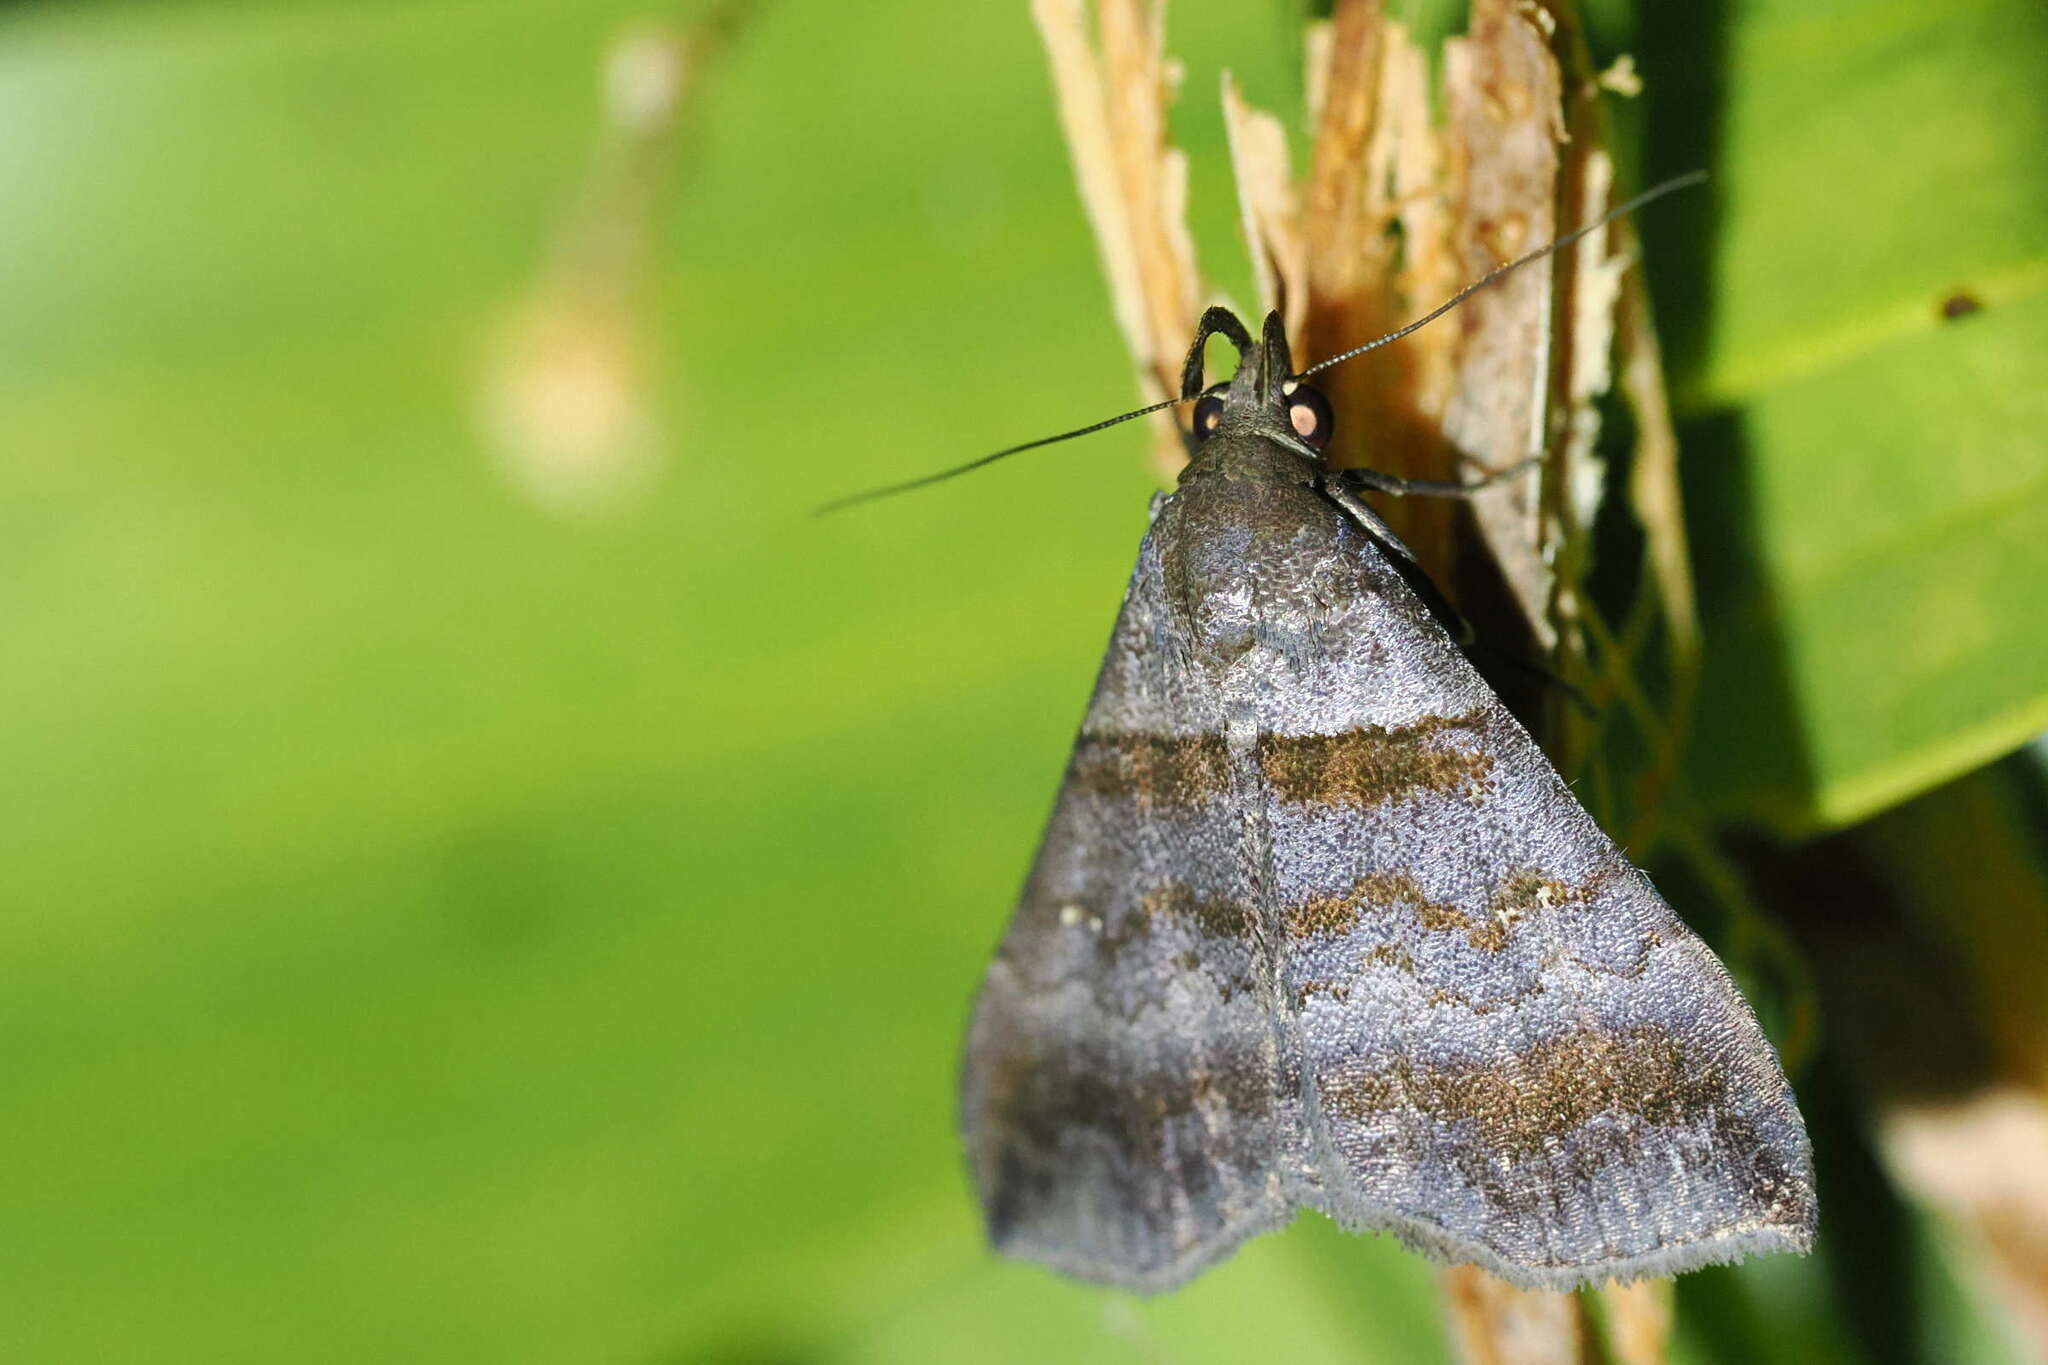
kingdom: Animalia
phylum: Arthropoda
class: Insecta
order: Lepidoptera
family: Erebidae
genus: Lascoria
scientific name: Lascoria orneodalis
